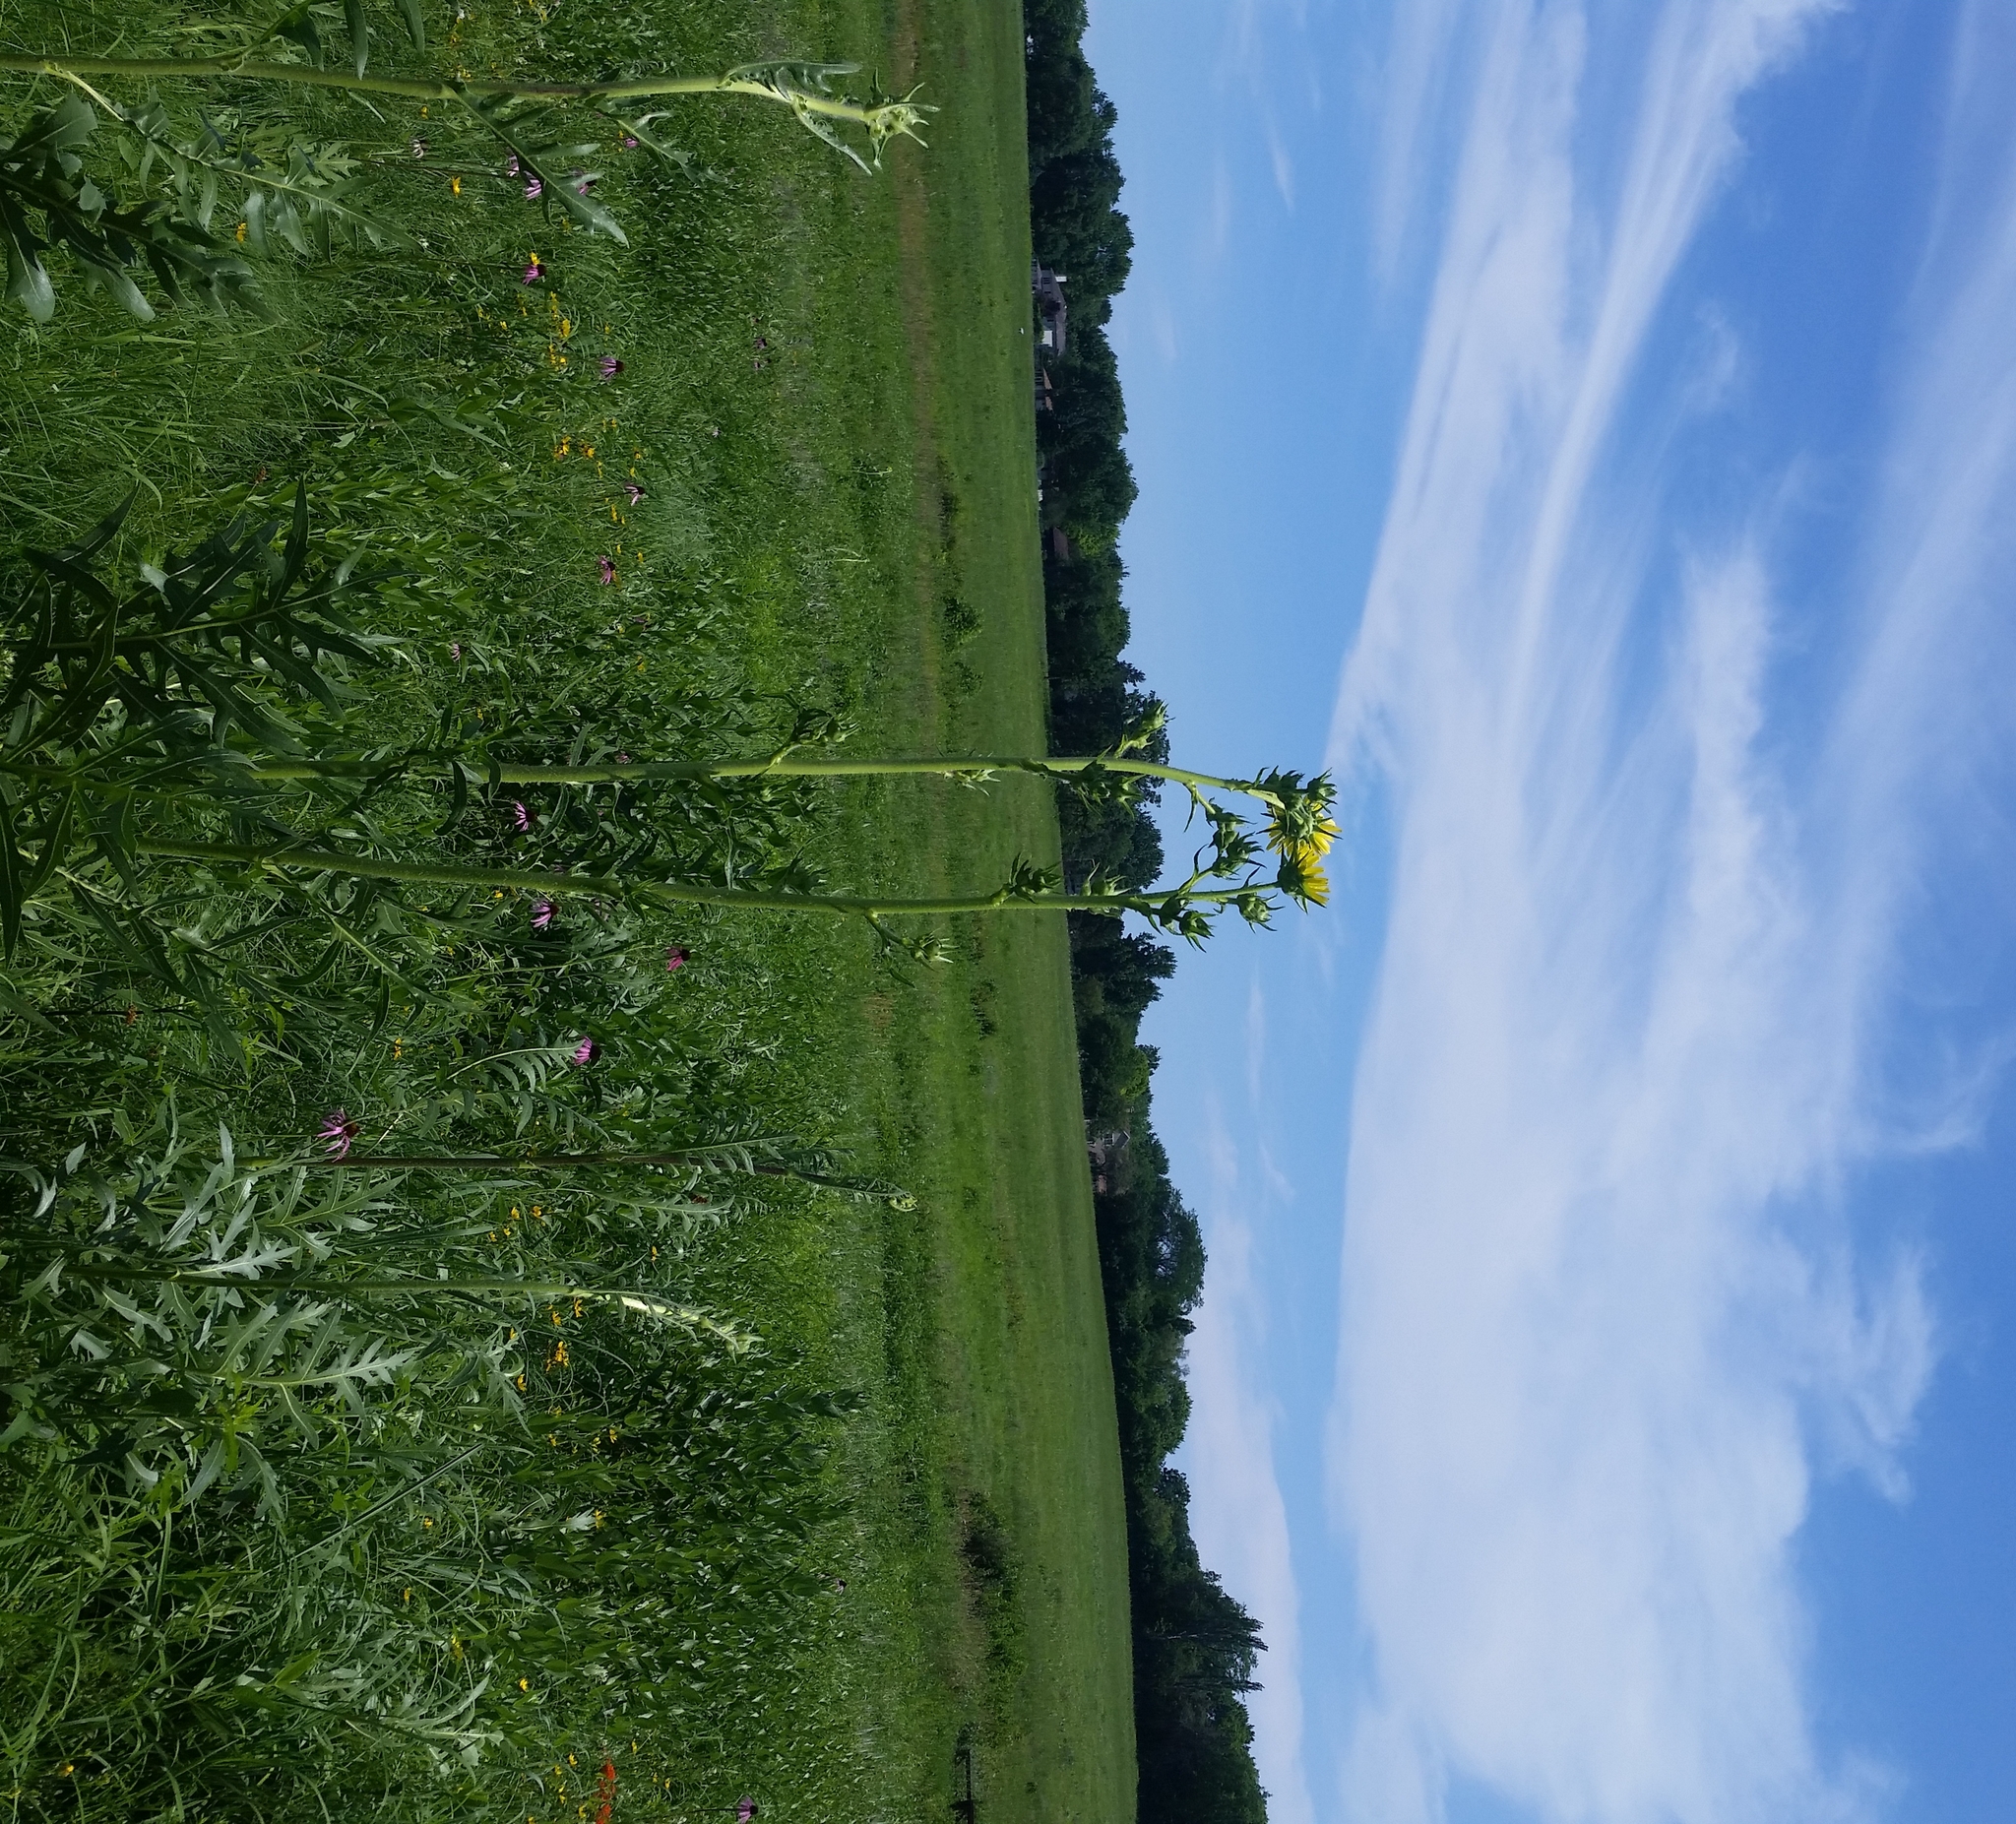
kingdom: Plantae
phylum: Tracheophyta
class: Magnoliopsida
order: Asterales
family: Asteraceae
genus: Silphium
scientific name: Silphium laciniatum
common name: Polarplant
